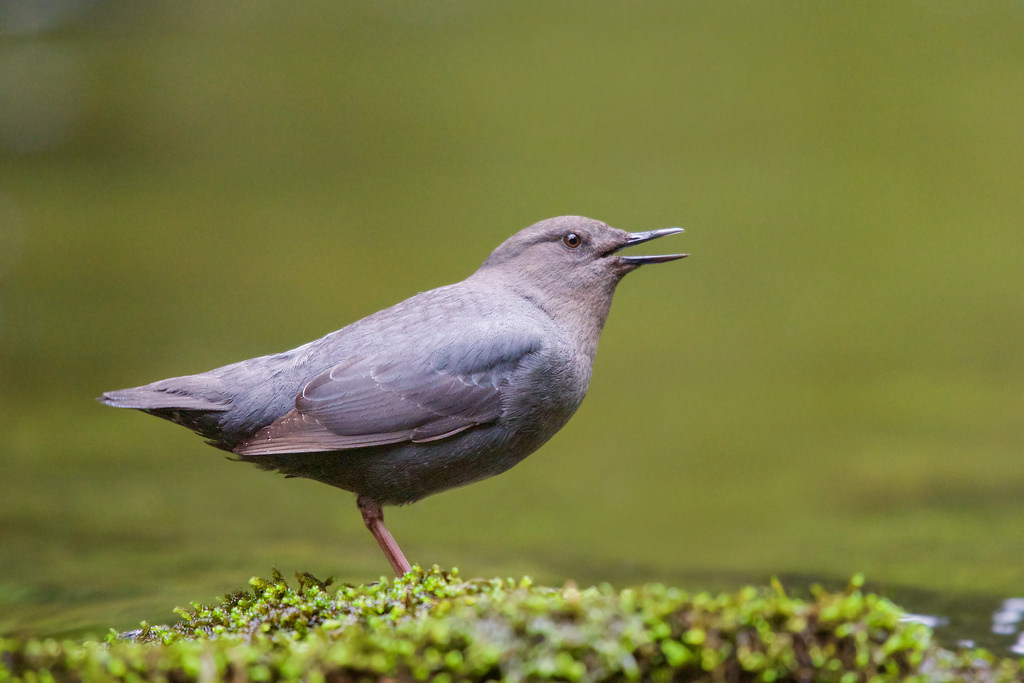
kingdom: Animalia
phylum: Chordata
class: Aves
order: Passeriformes
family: Cinclidae
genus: Cinclus
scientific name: Cinclus mexicanus
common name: American dipper
